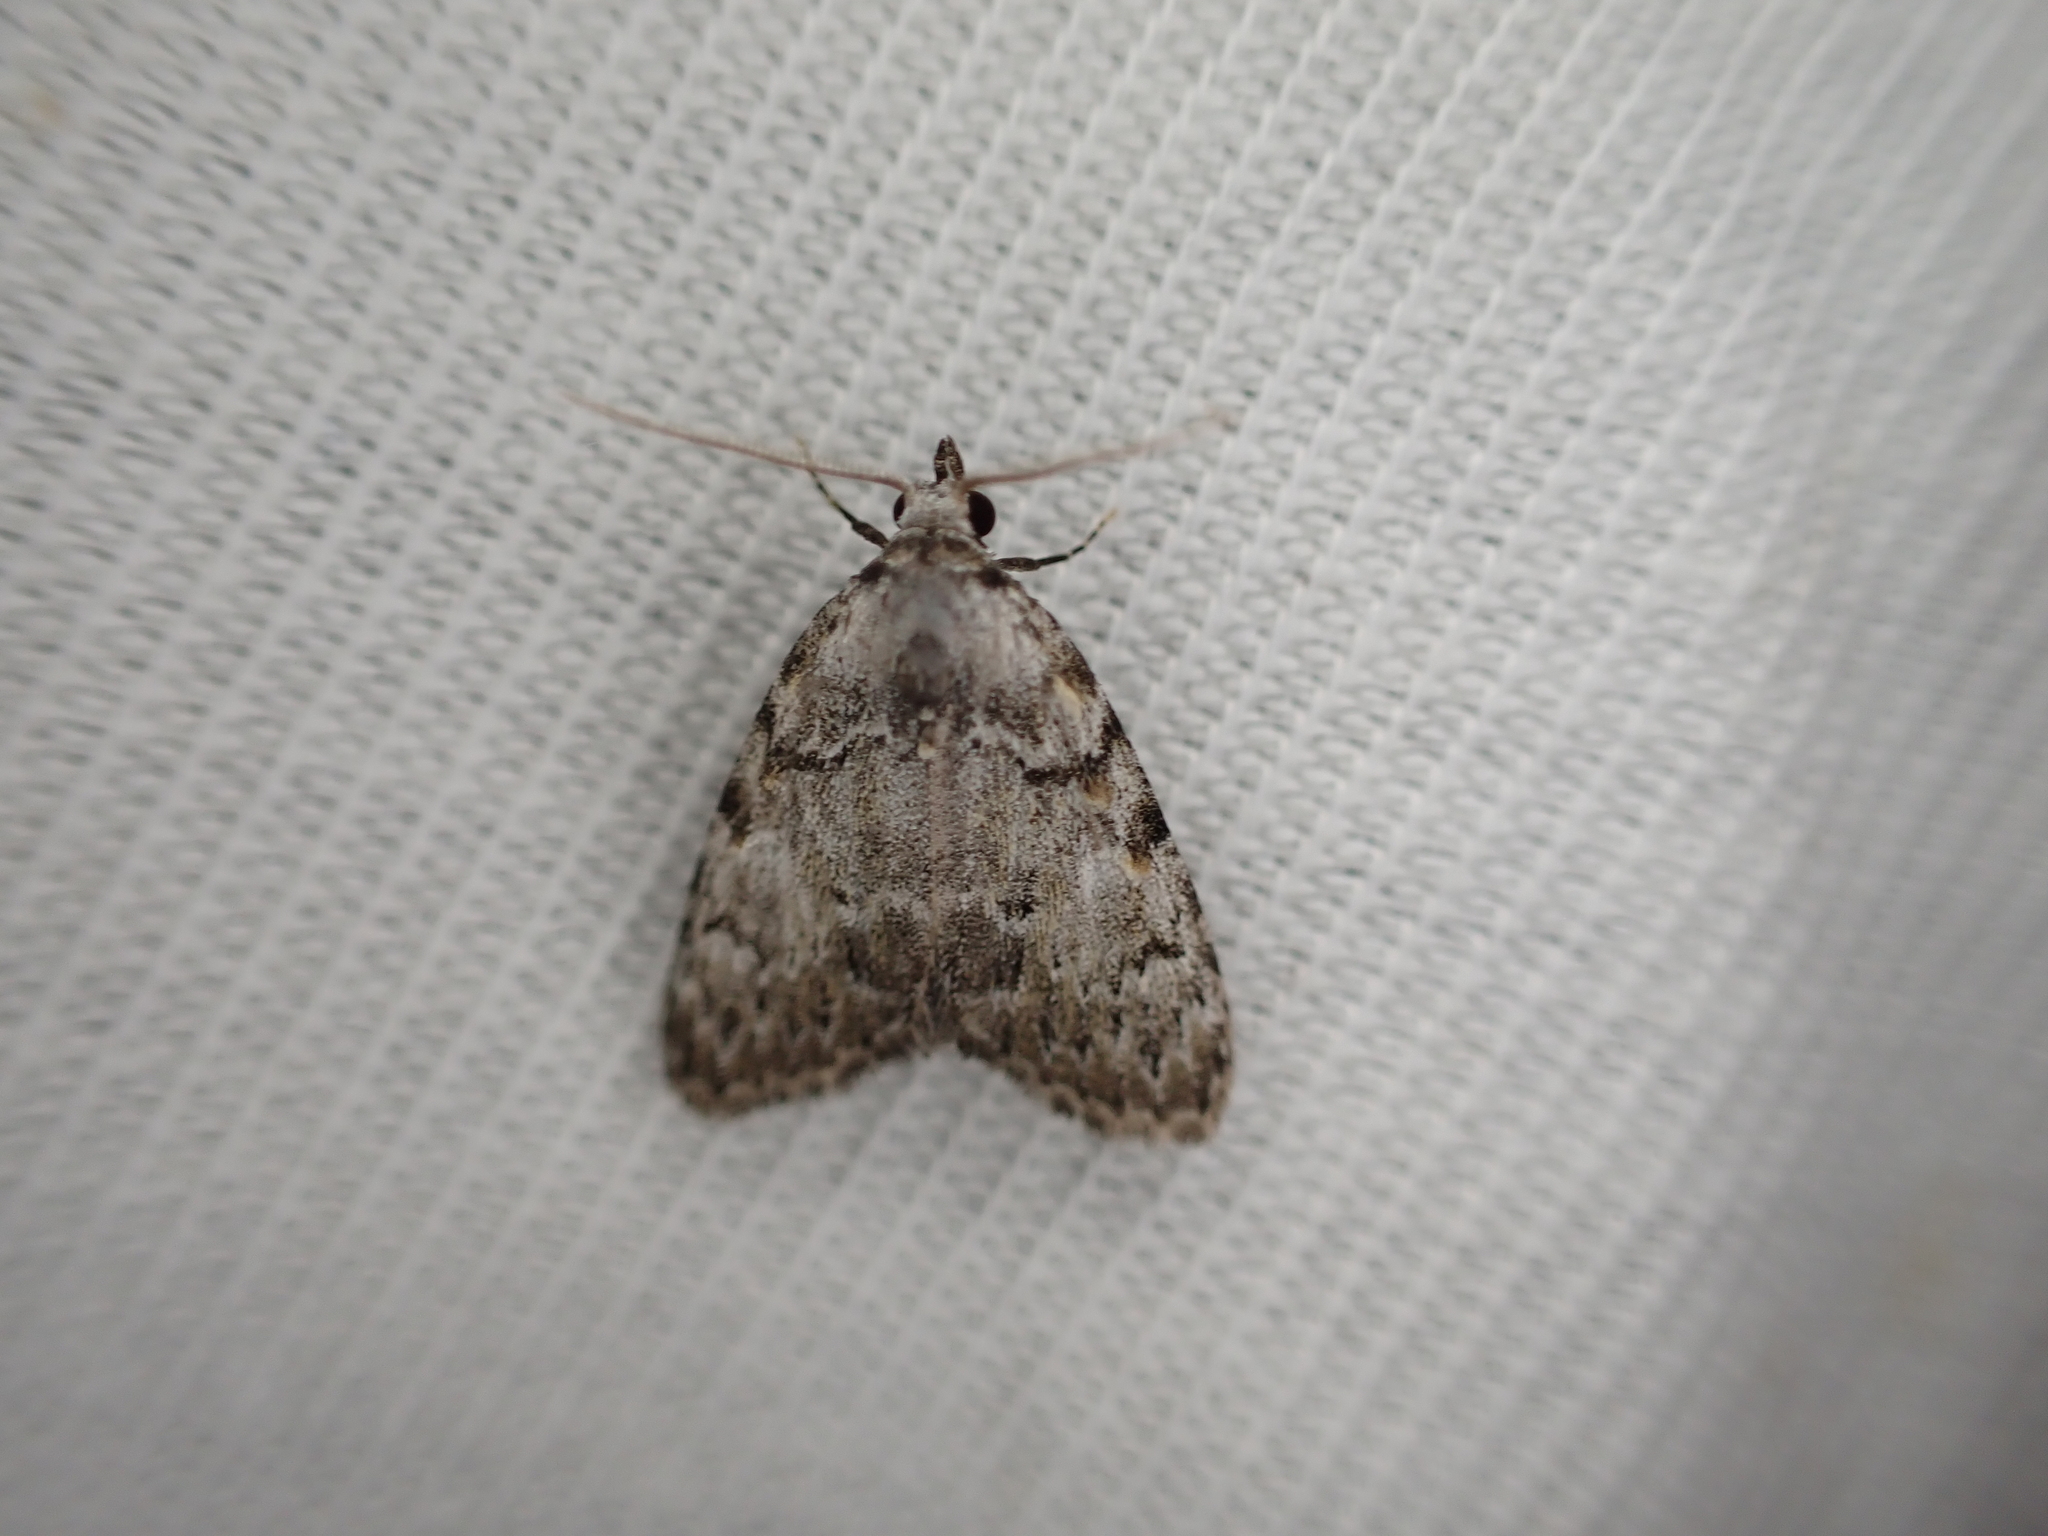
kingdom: Animalia
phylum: Arthropoda
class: Insecta
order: Lepidoptera
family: Nolidae
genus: Meganola
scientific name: Meganola strigula
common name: Small black arches
